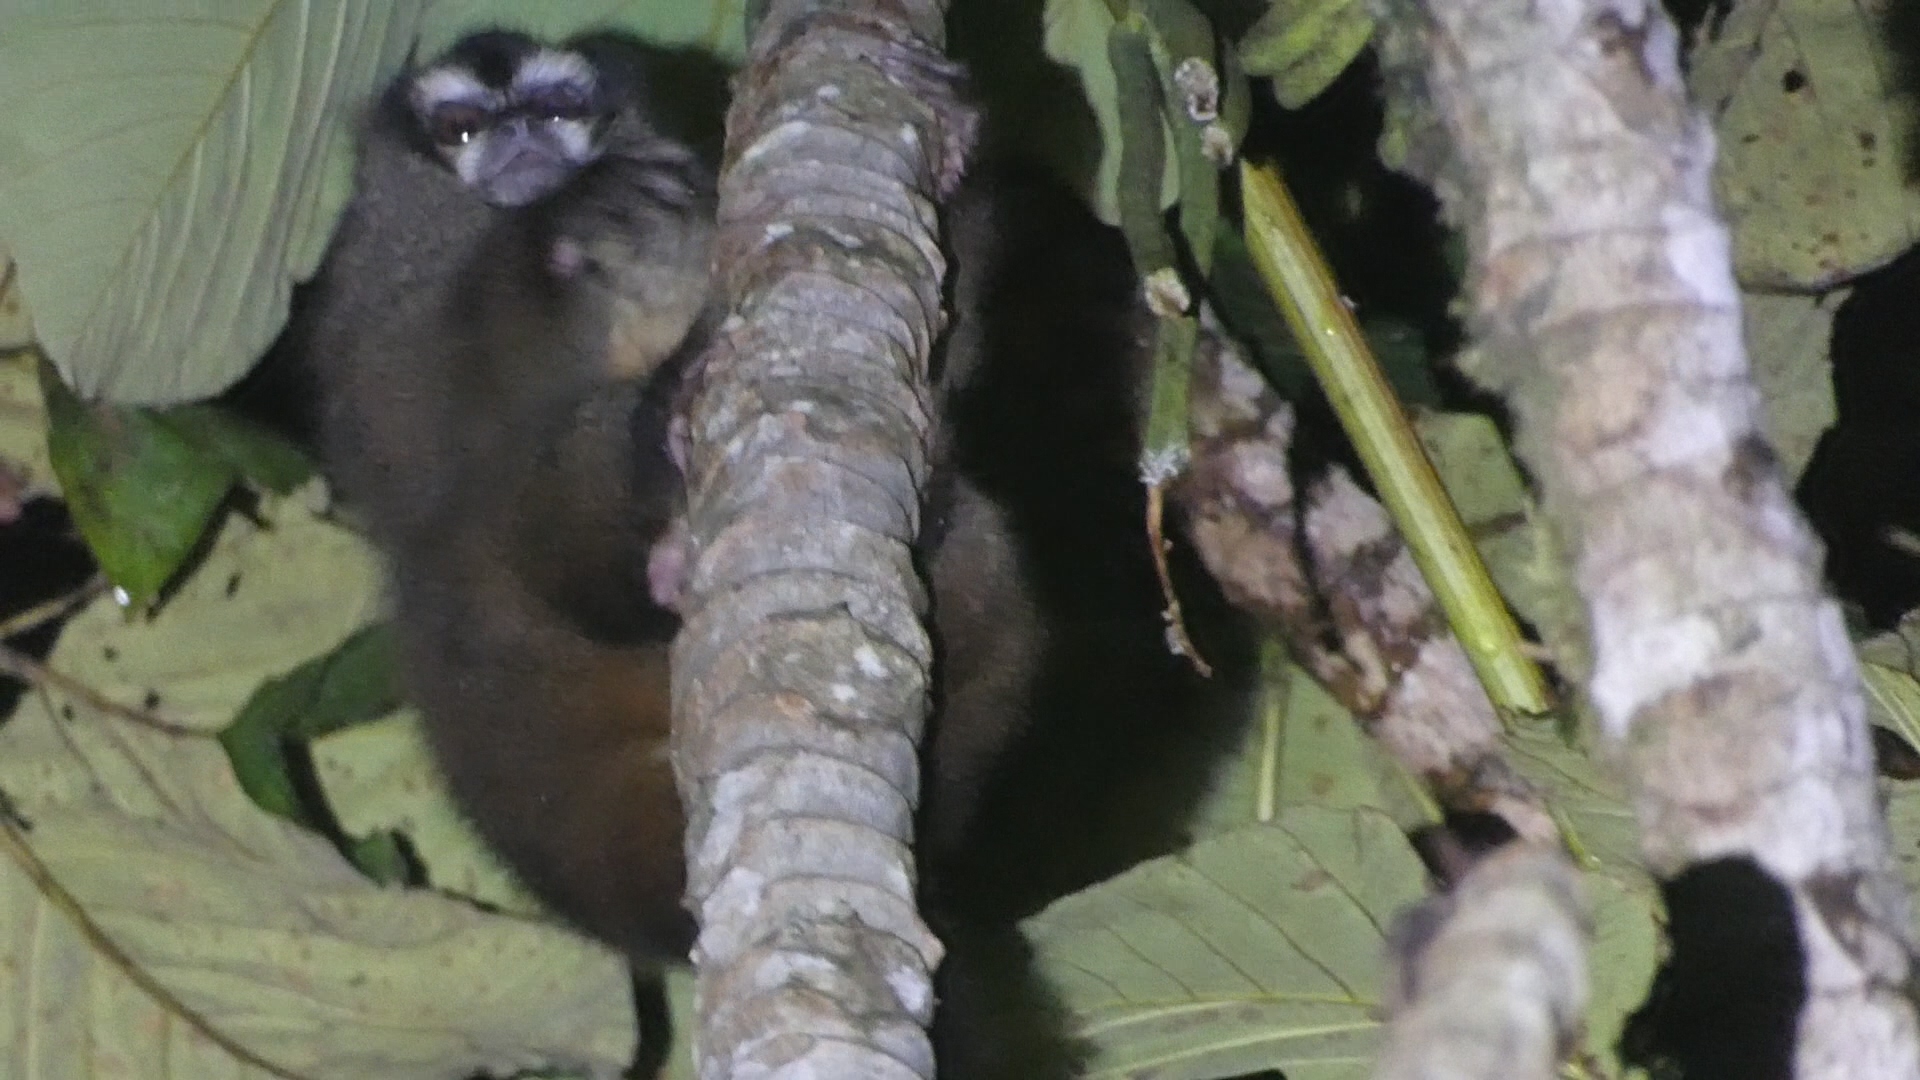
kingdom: Animalia
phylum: Chordata
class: Mammalia
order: Primates
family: Aotidae
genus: Aotus
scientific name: Aotus lemurinus
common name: Gray-bellied night monkey
